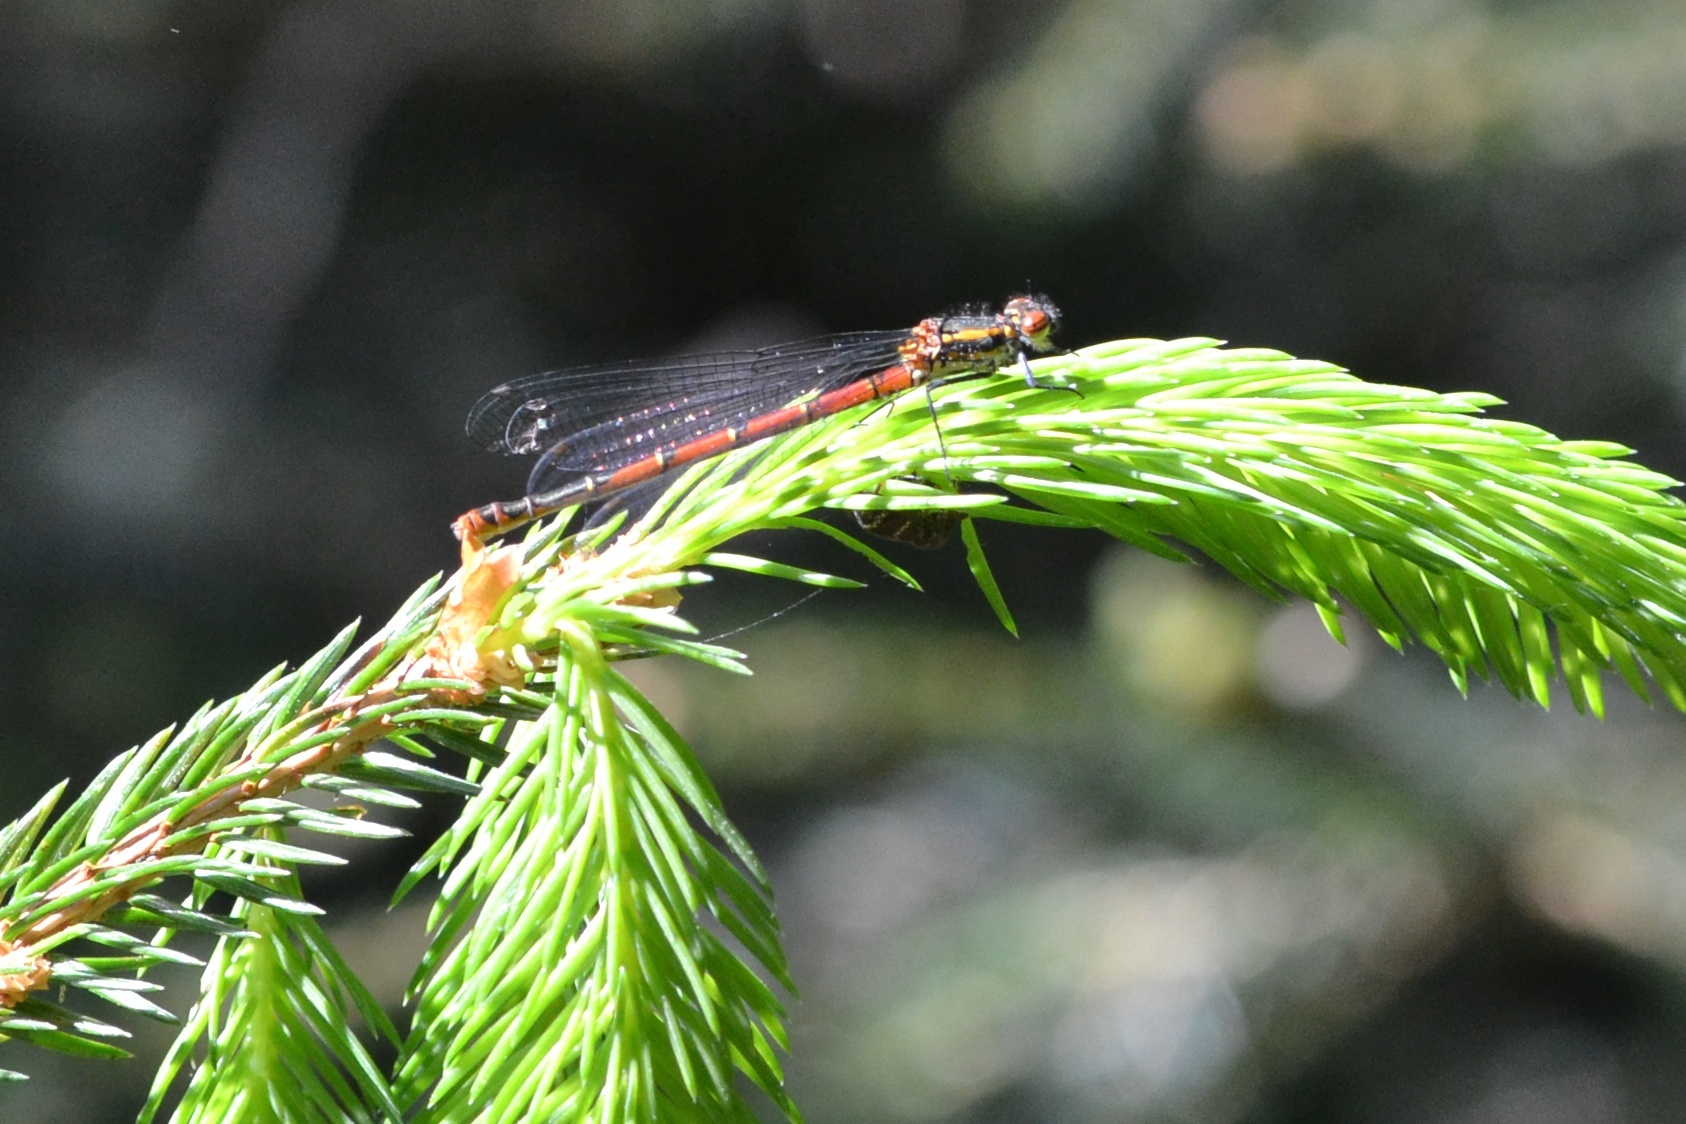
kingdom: Animalia
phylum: Arthropoda
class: Insecta
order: Odonata
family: Coenagrionidae
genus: Pyrrhosoma
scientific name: Pyrrhosoma nymphula
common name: Large red damsel
